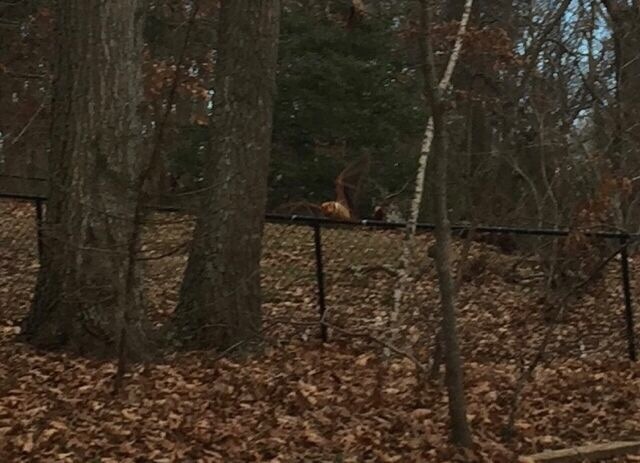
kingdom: Animalia
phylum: Chordata
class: Mammalia
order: Chiroptera
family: Vespertilionidae
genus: Lasiurus
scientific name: Lasiurus borealis
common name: Eastern red bat
